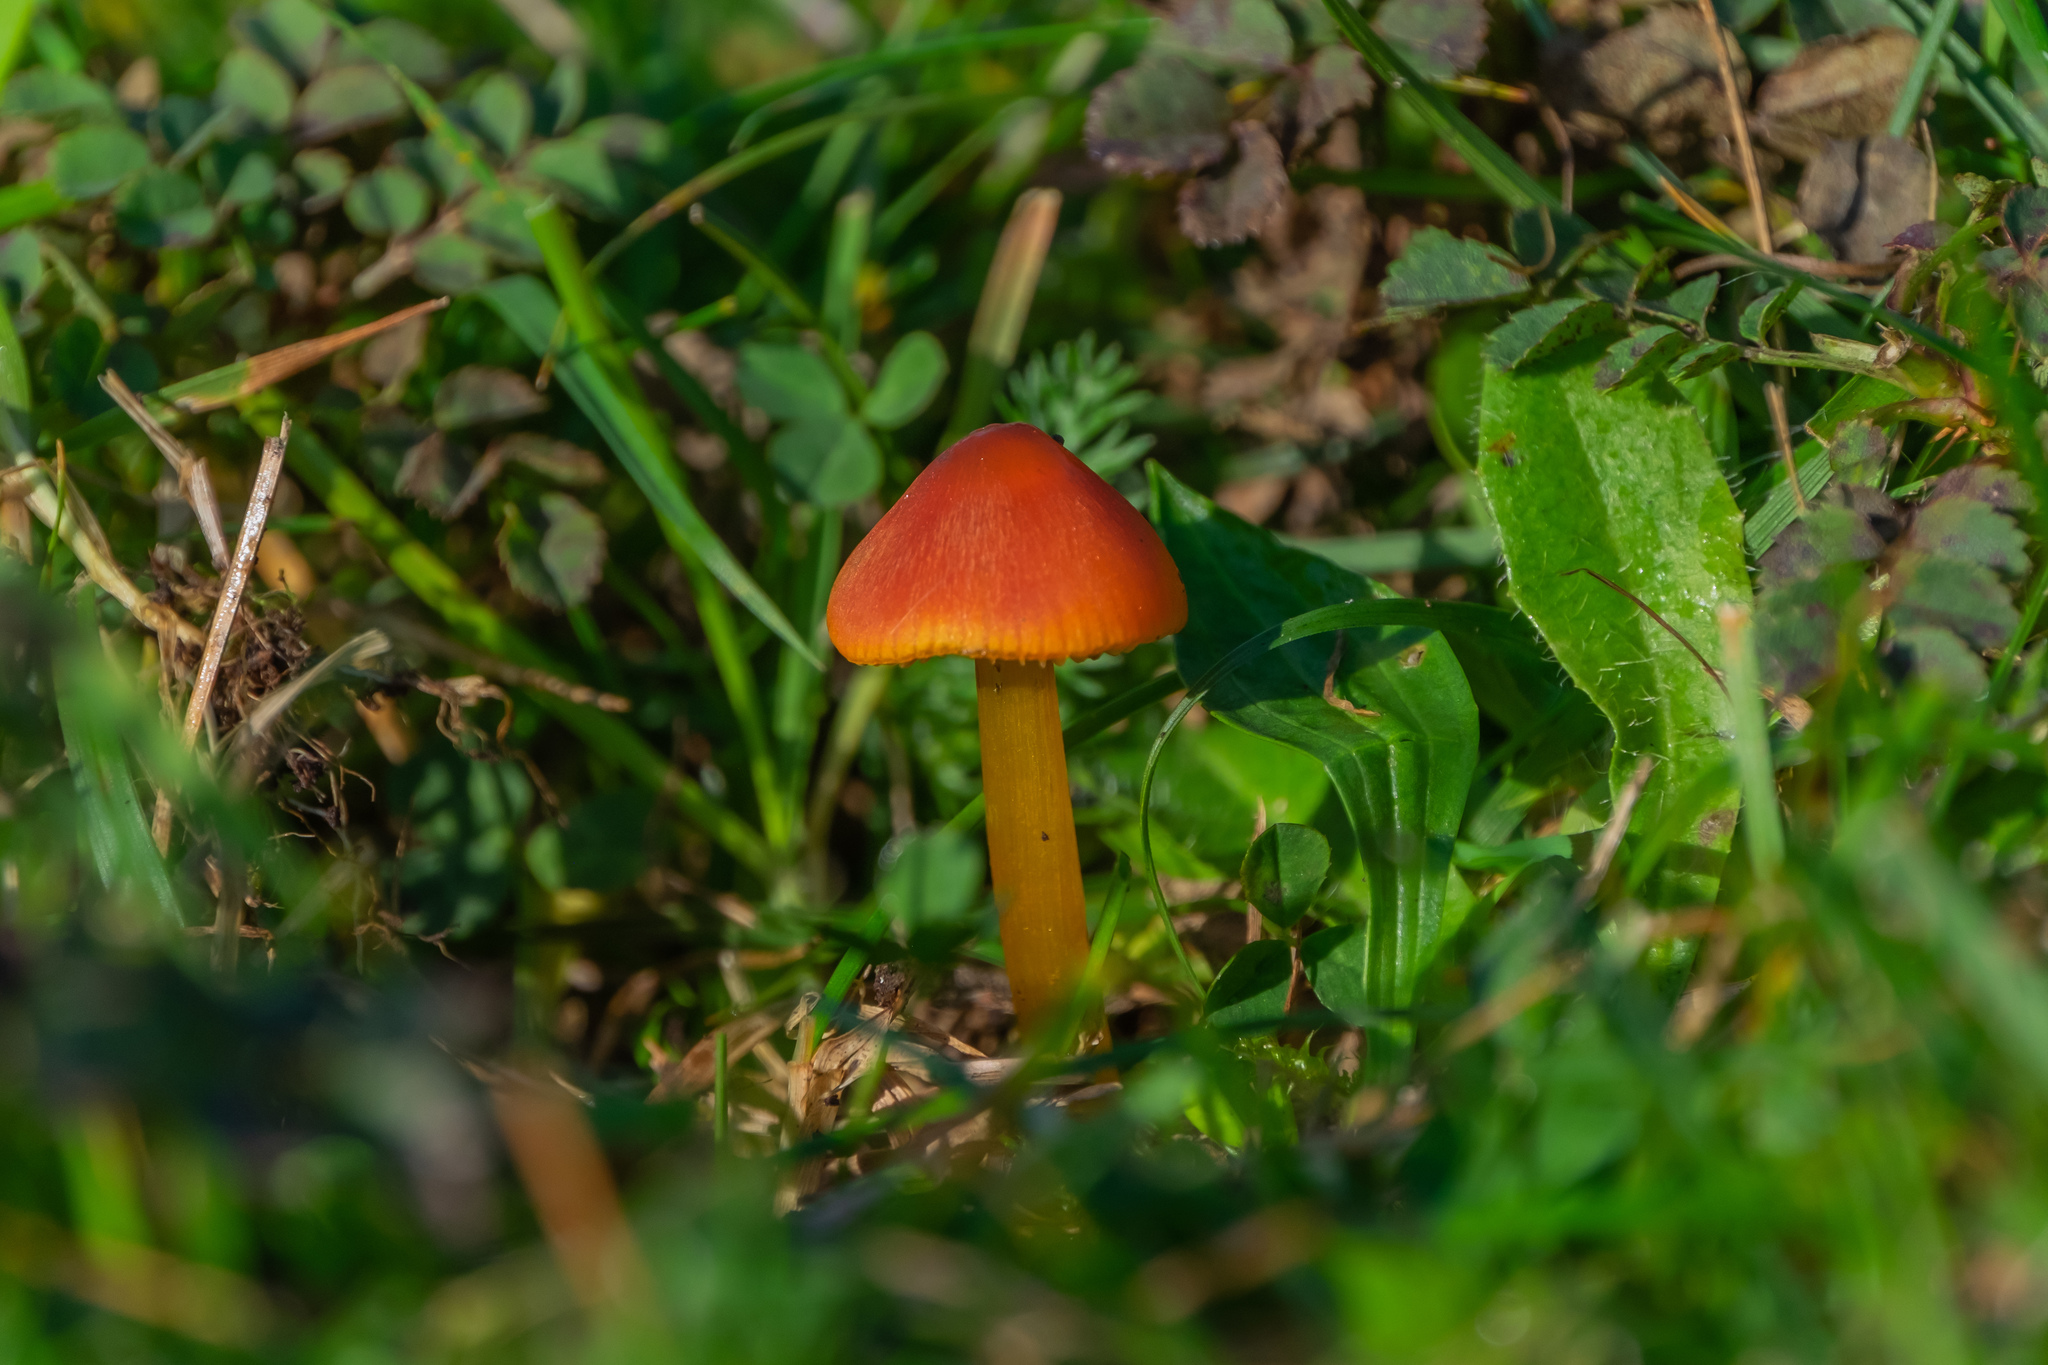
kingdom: Fungi
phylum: Basidiomycota
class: Agaricomycetes
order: Agaricales
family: Hygrophoraceae
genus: Hygrocybe
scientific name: Hygrocybe conica
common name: Blackening wax-cap
